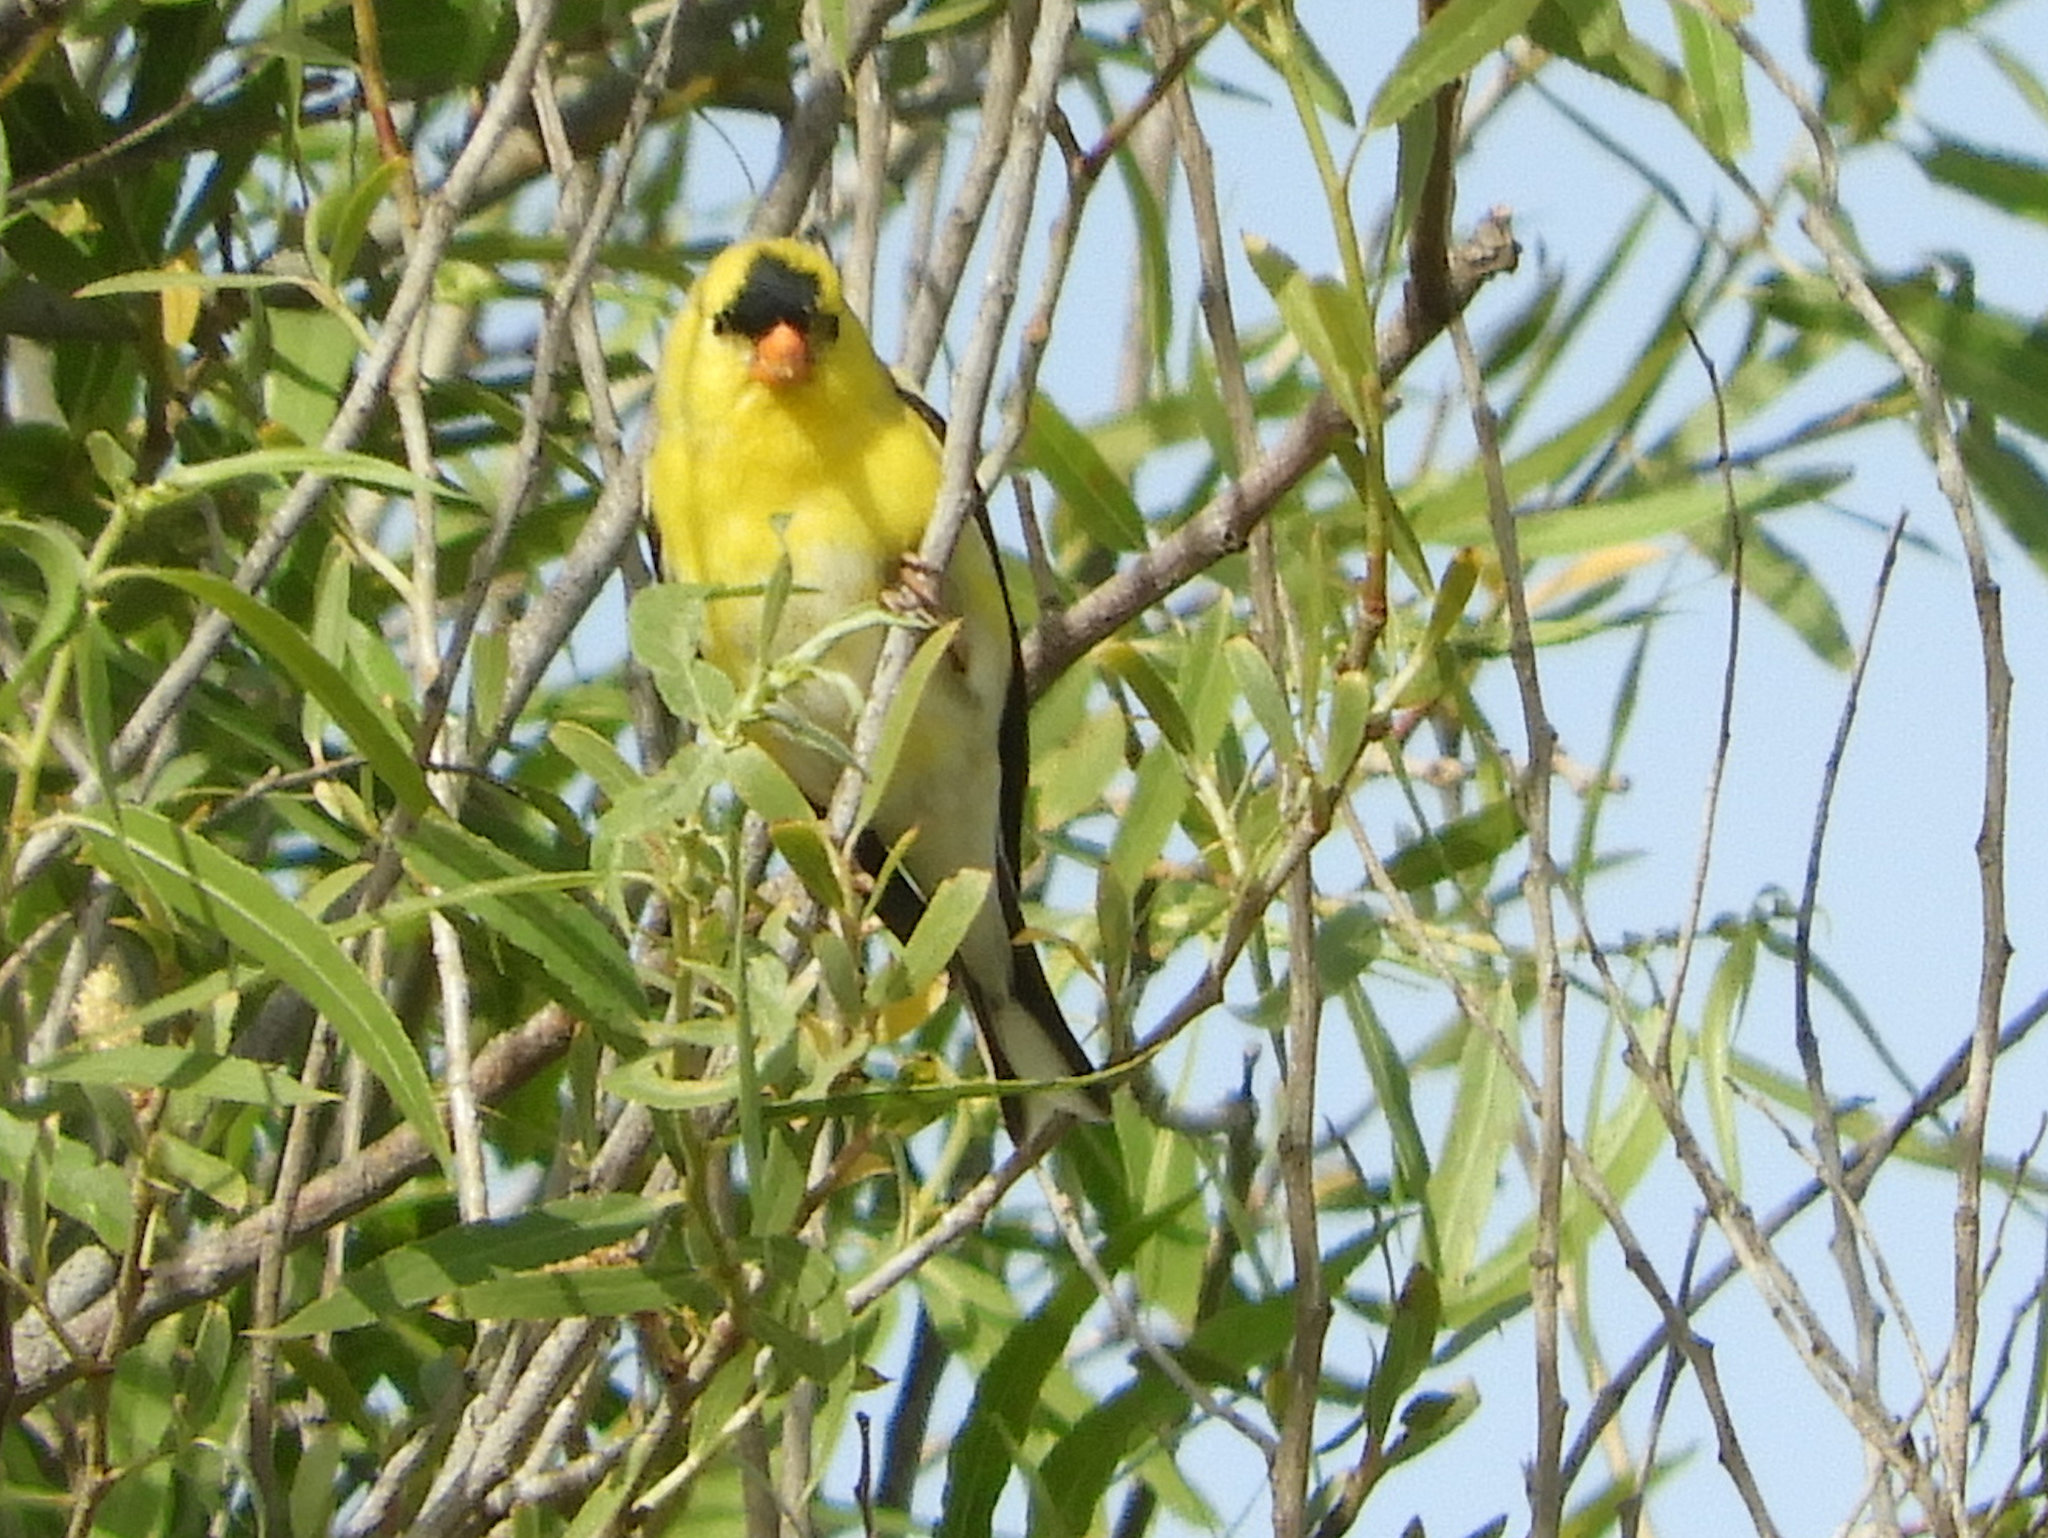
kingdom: Animalia
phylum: Chordata
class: Aves
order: Passeriformes
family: Fringillidae
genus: Spinus
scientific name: Spinus tristis
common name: American goldfinch
